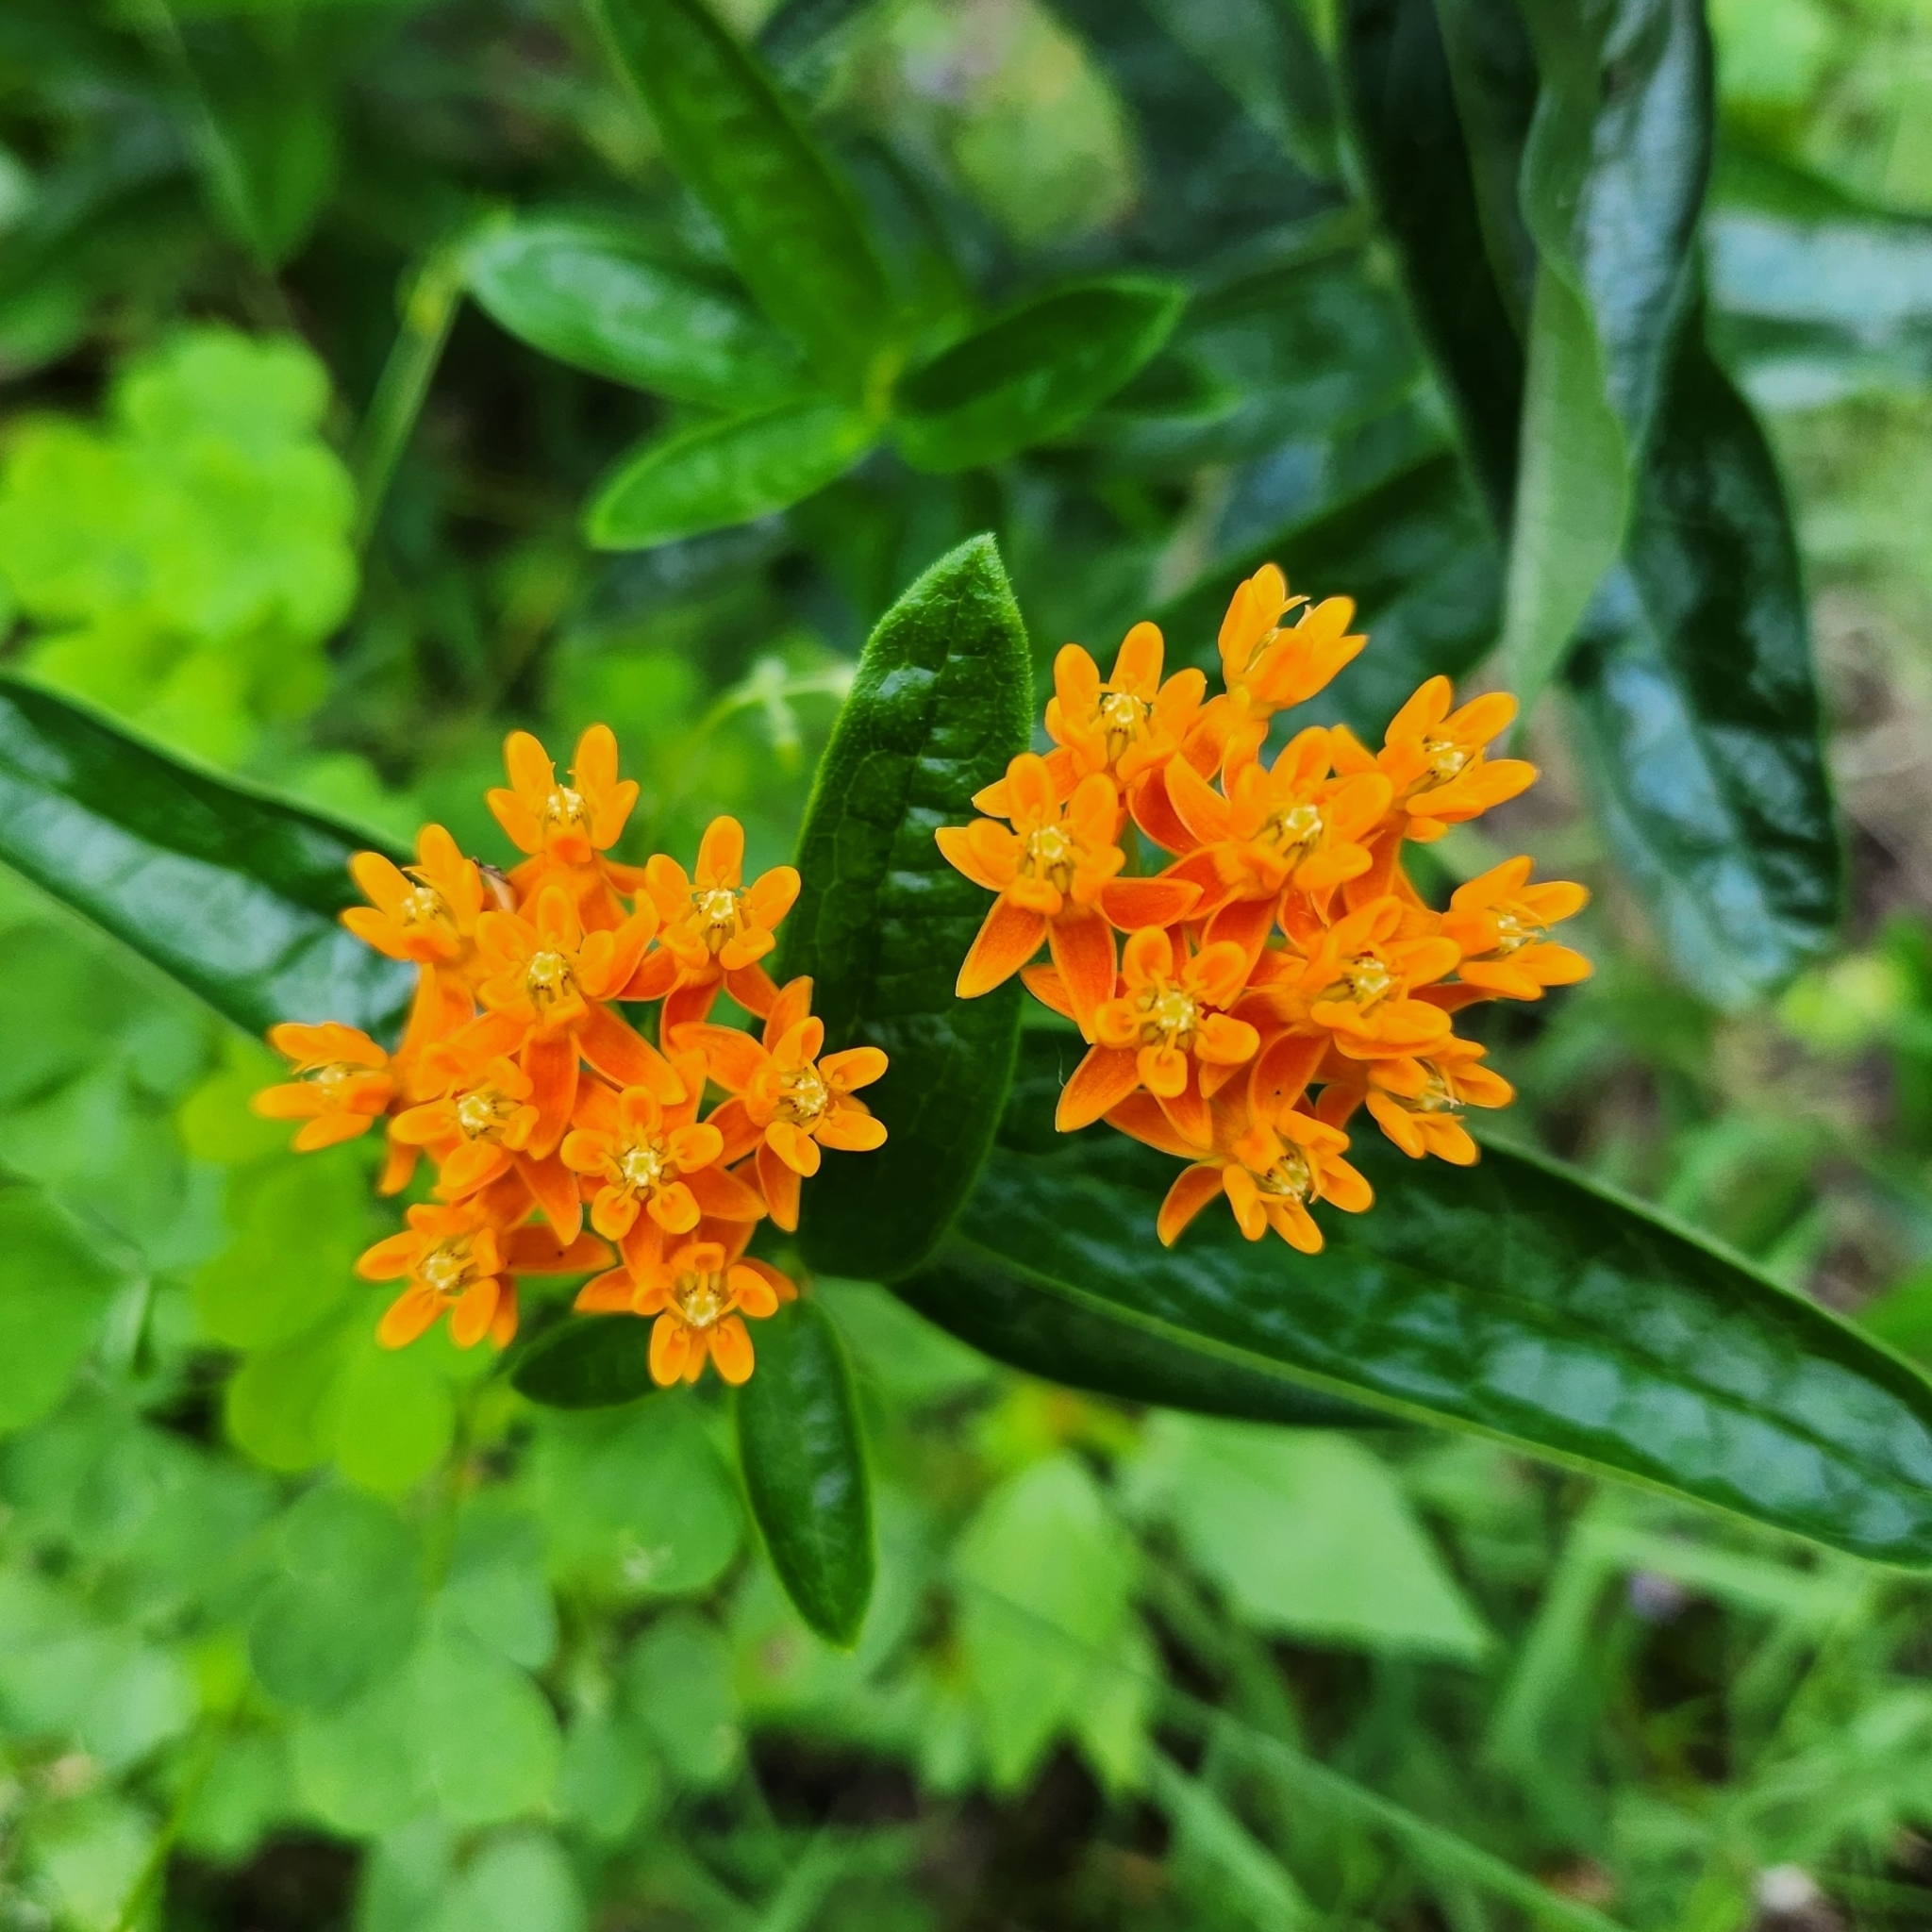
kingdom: Plantae
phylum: Tracheophyta
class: Magnoliopsida
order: Gentianales
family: Apocynaceae
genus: Asclepias
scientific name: Asclepias tuberosa
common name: Butterfly milkweed
